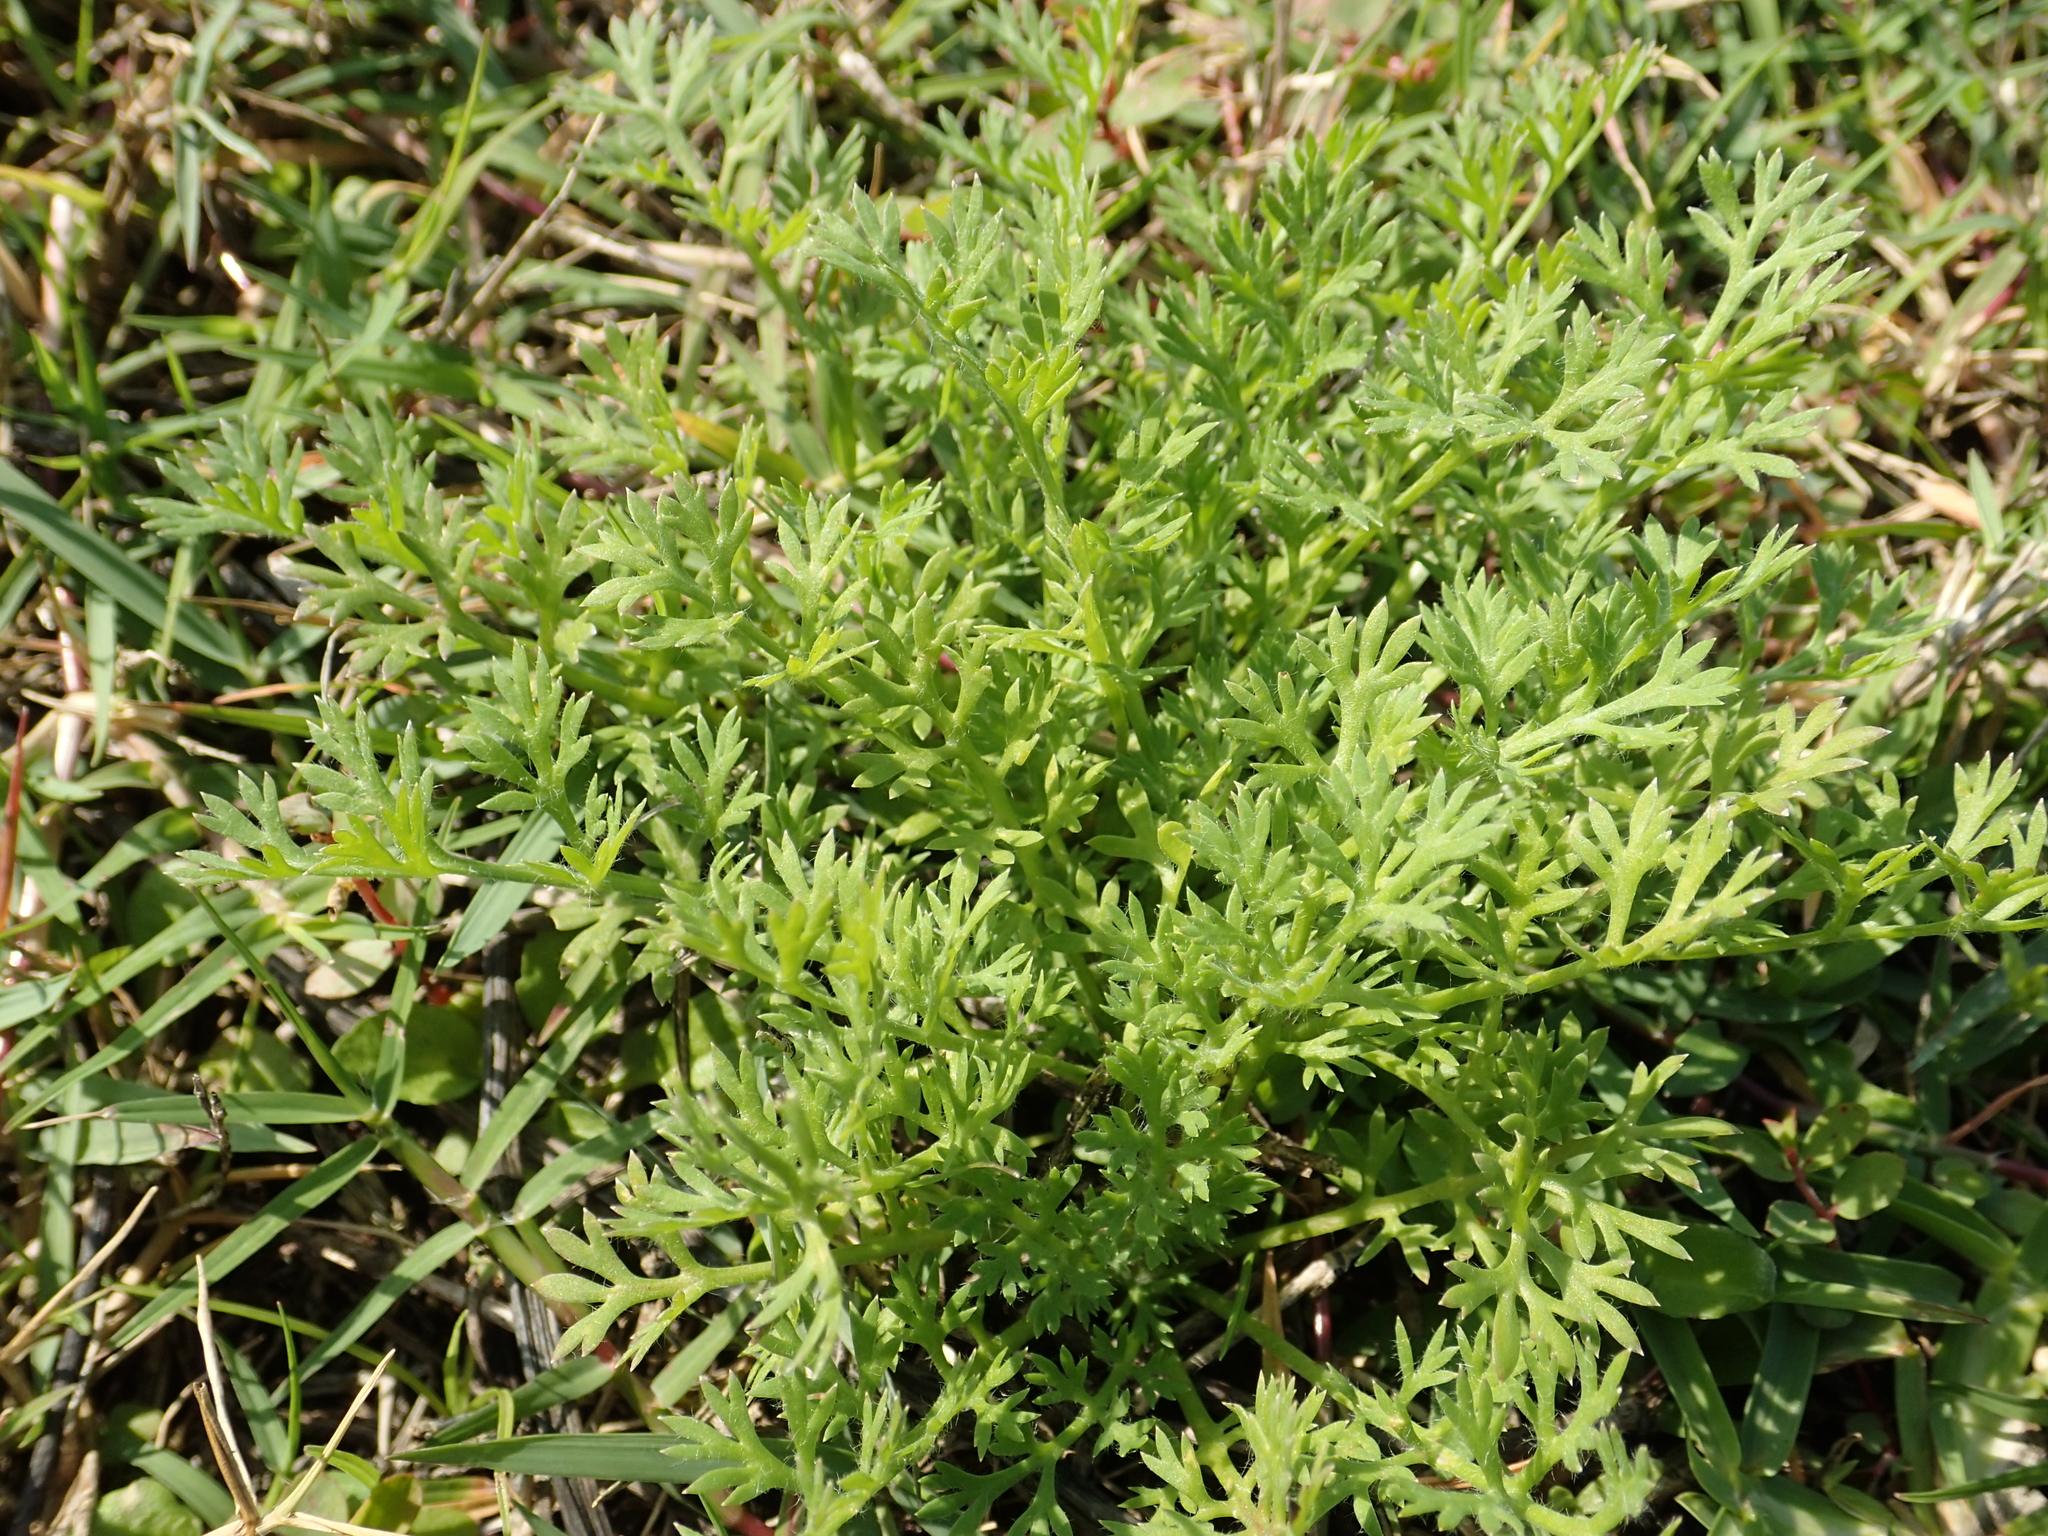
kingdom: Plantae
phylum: Tracheophyta
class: Magnoliopsida
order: Asterales
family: Asteraceae
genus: Soliva
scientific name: Soliva anthemifolia
